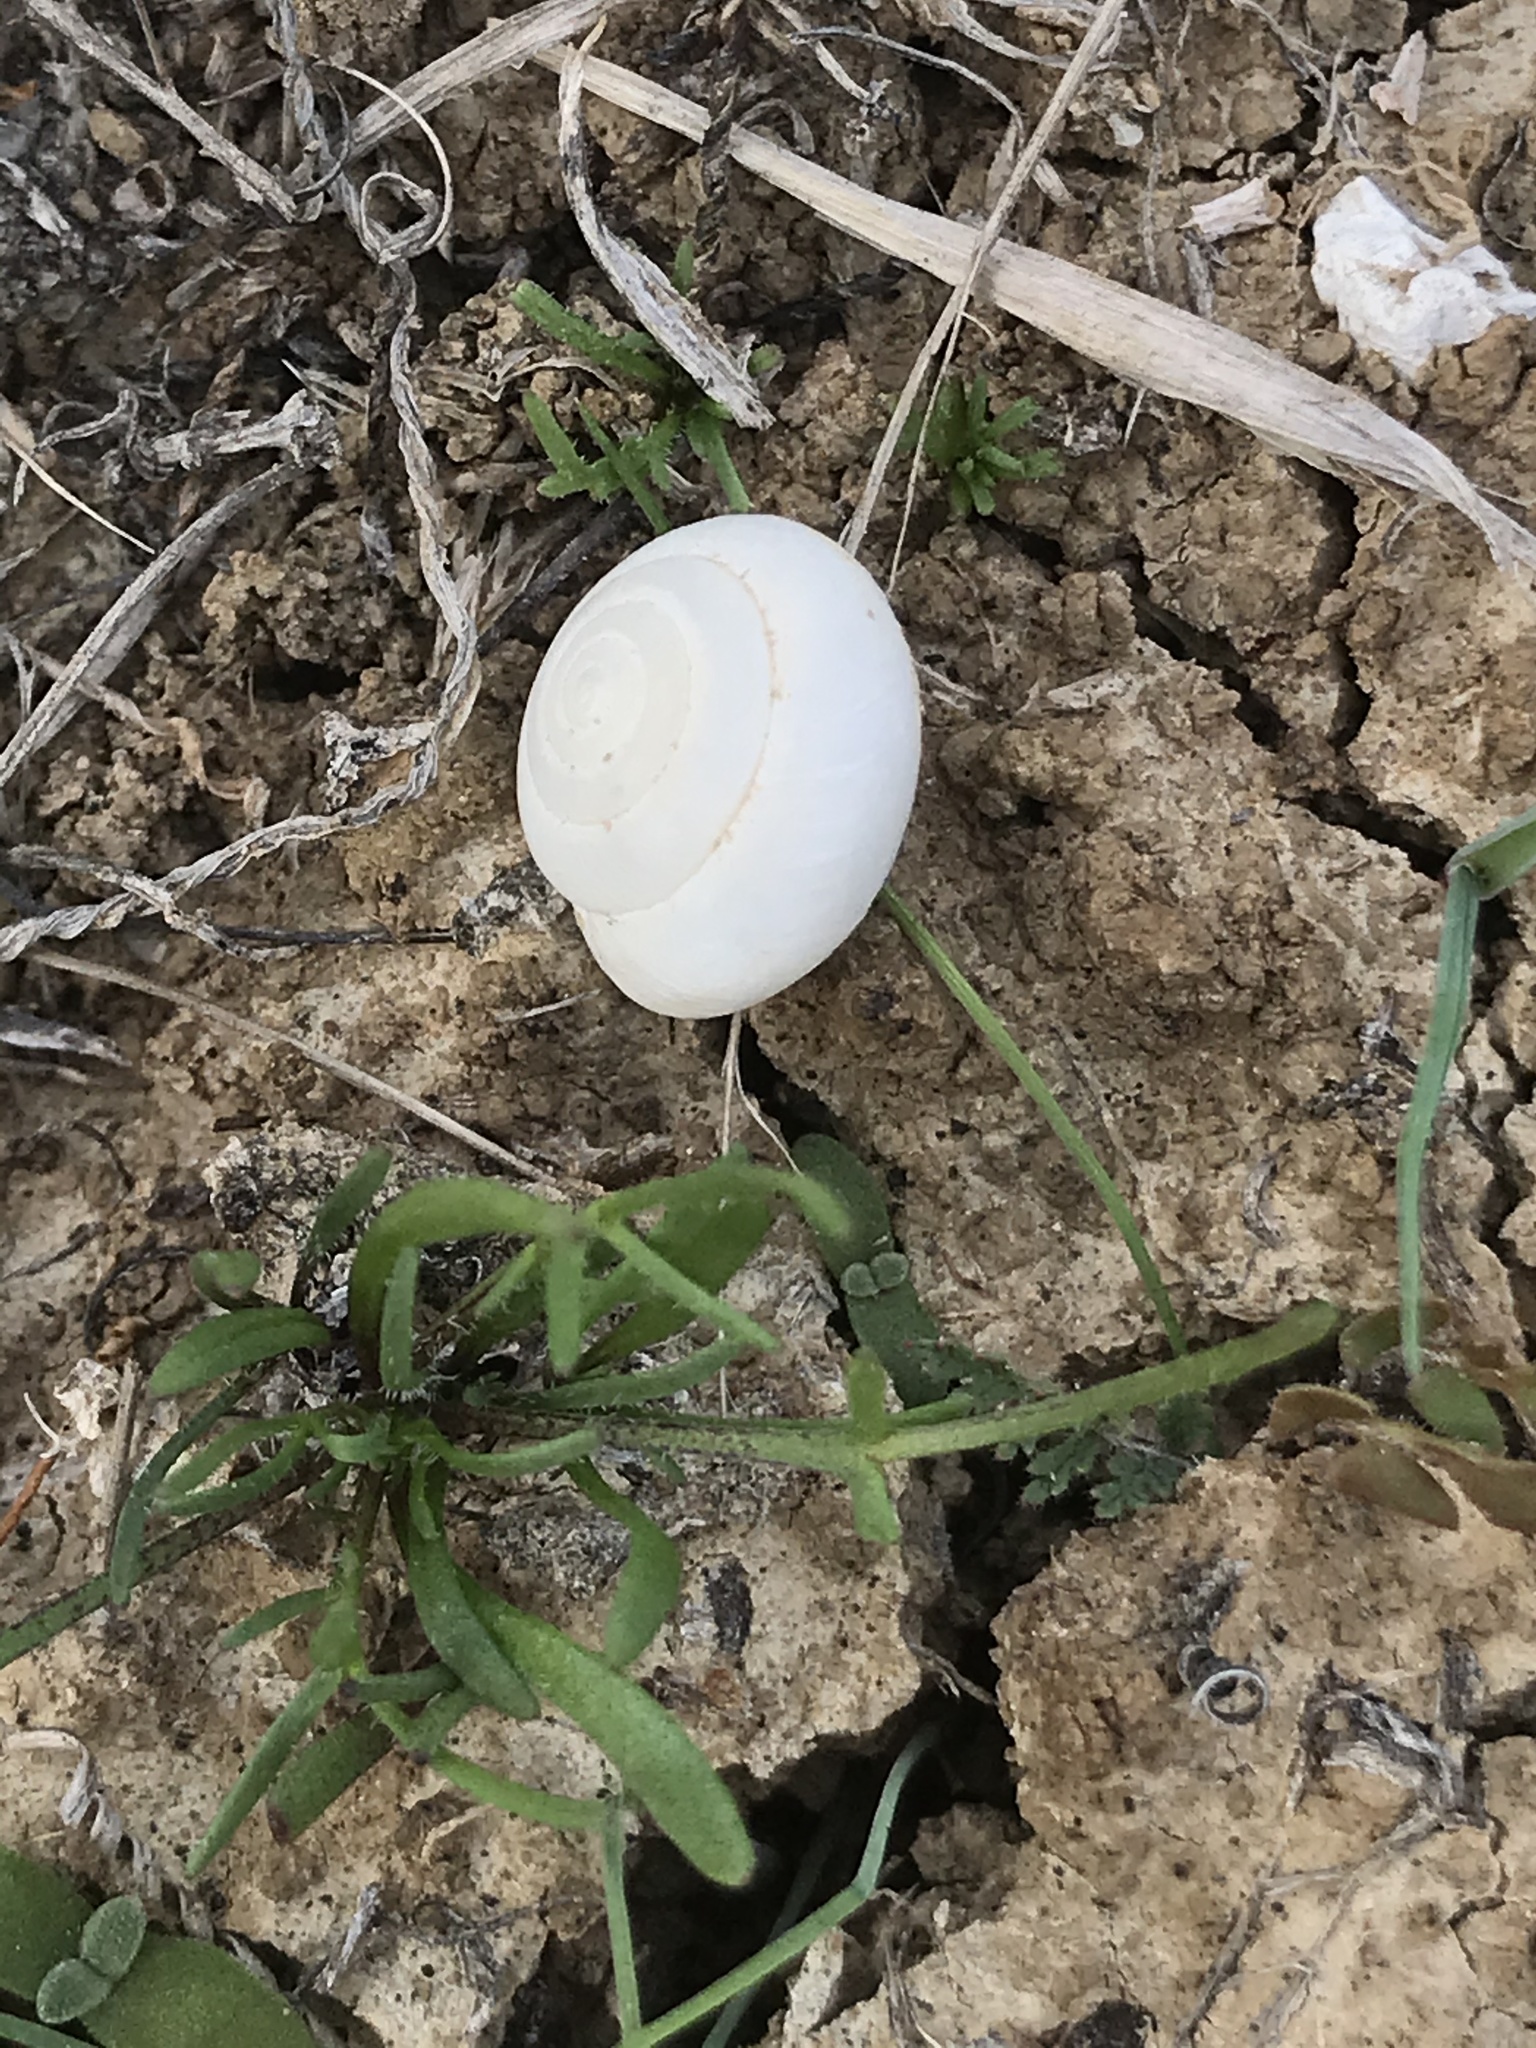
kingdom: Animalia
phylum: Mollusca
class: Gastropoda
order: Stylommatophora
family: Xanthonychidae
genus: Micrarionta
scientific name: Micrarionta facta
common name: Concentrated snail
